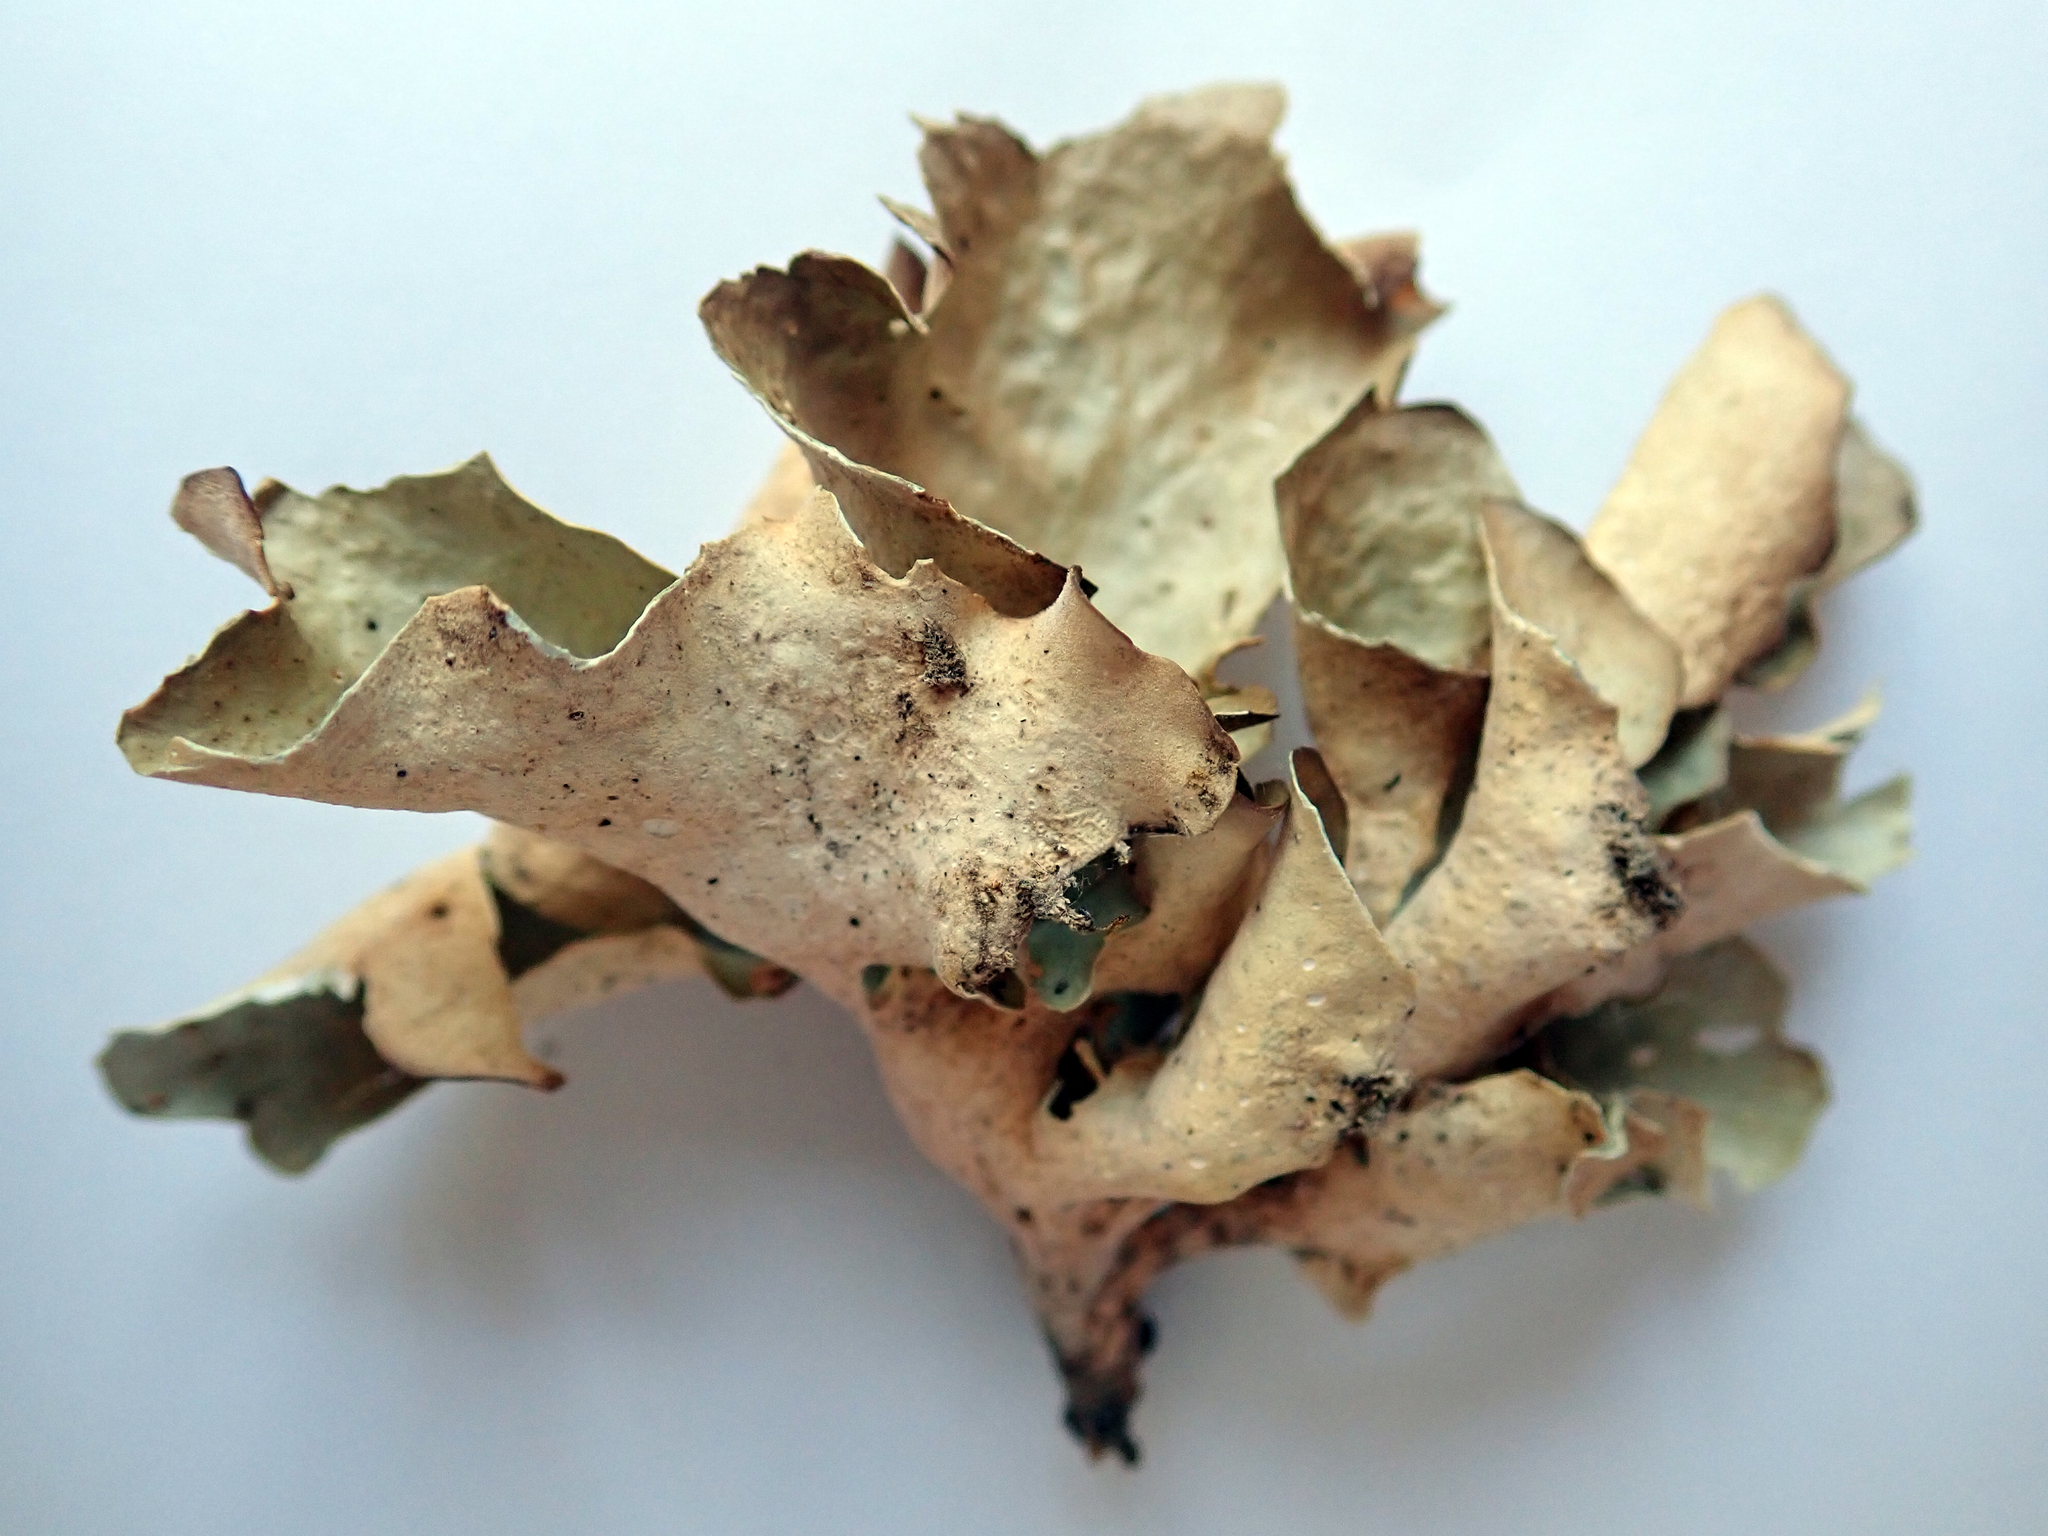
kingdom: Fungi
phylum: Ascomycota
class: Lecanoromycetes
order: Peltigerales
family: Lobariaceae
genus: Sticta
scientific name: Sticta latifrons
